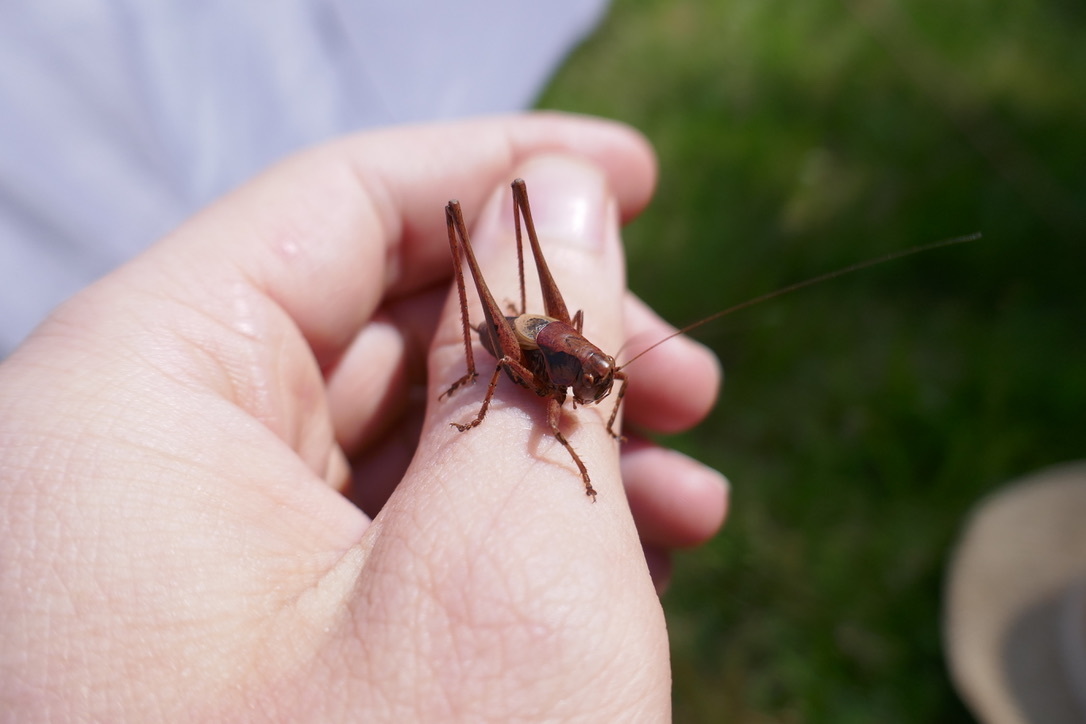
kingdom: Animalia
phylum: Arthropoda
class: Insecta
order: Orthoptera
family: Tettigoniidae
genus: Pholidoptera
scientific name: Pholidoptera griseoaptera
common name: Dark bush-cricket
